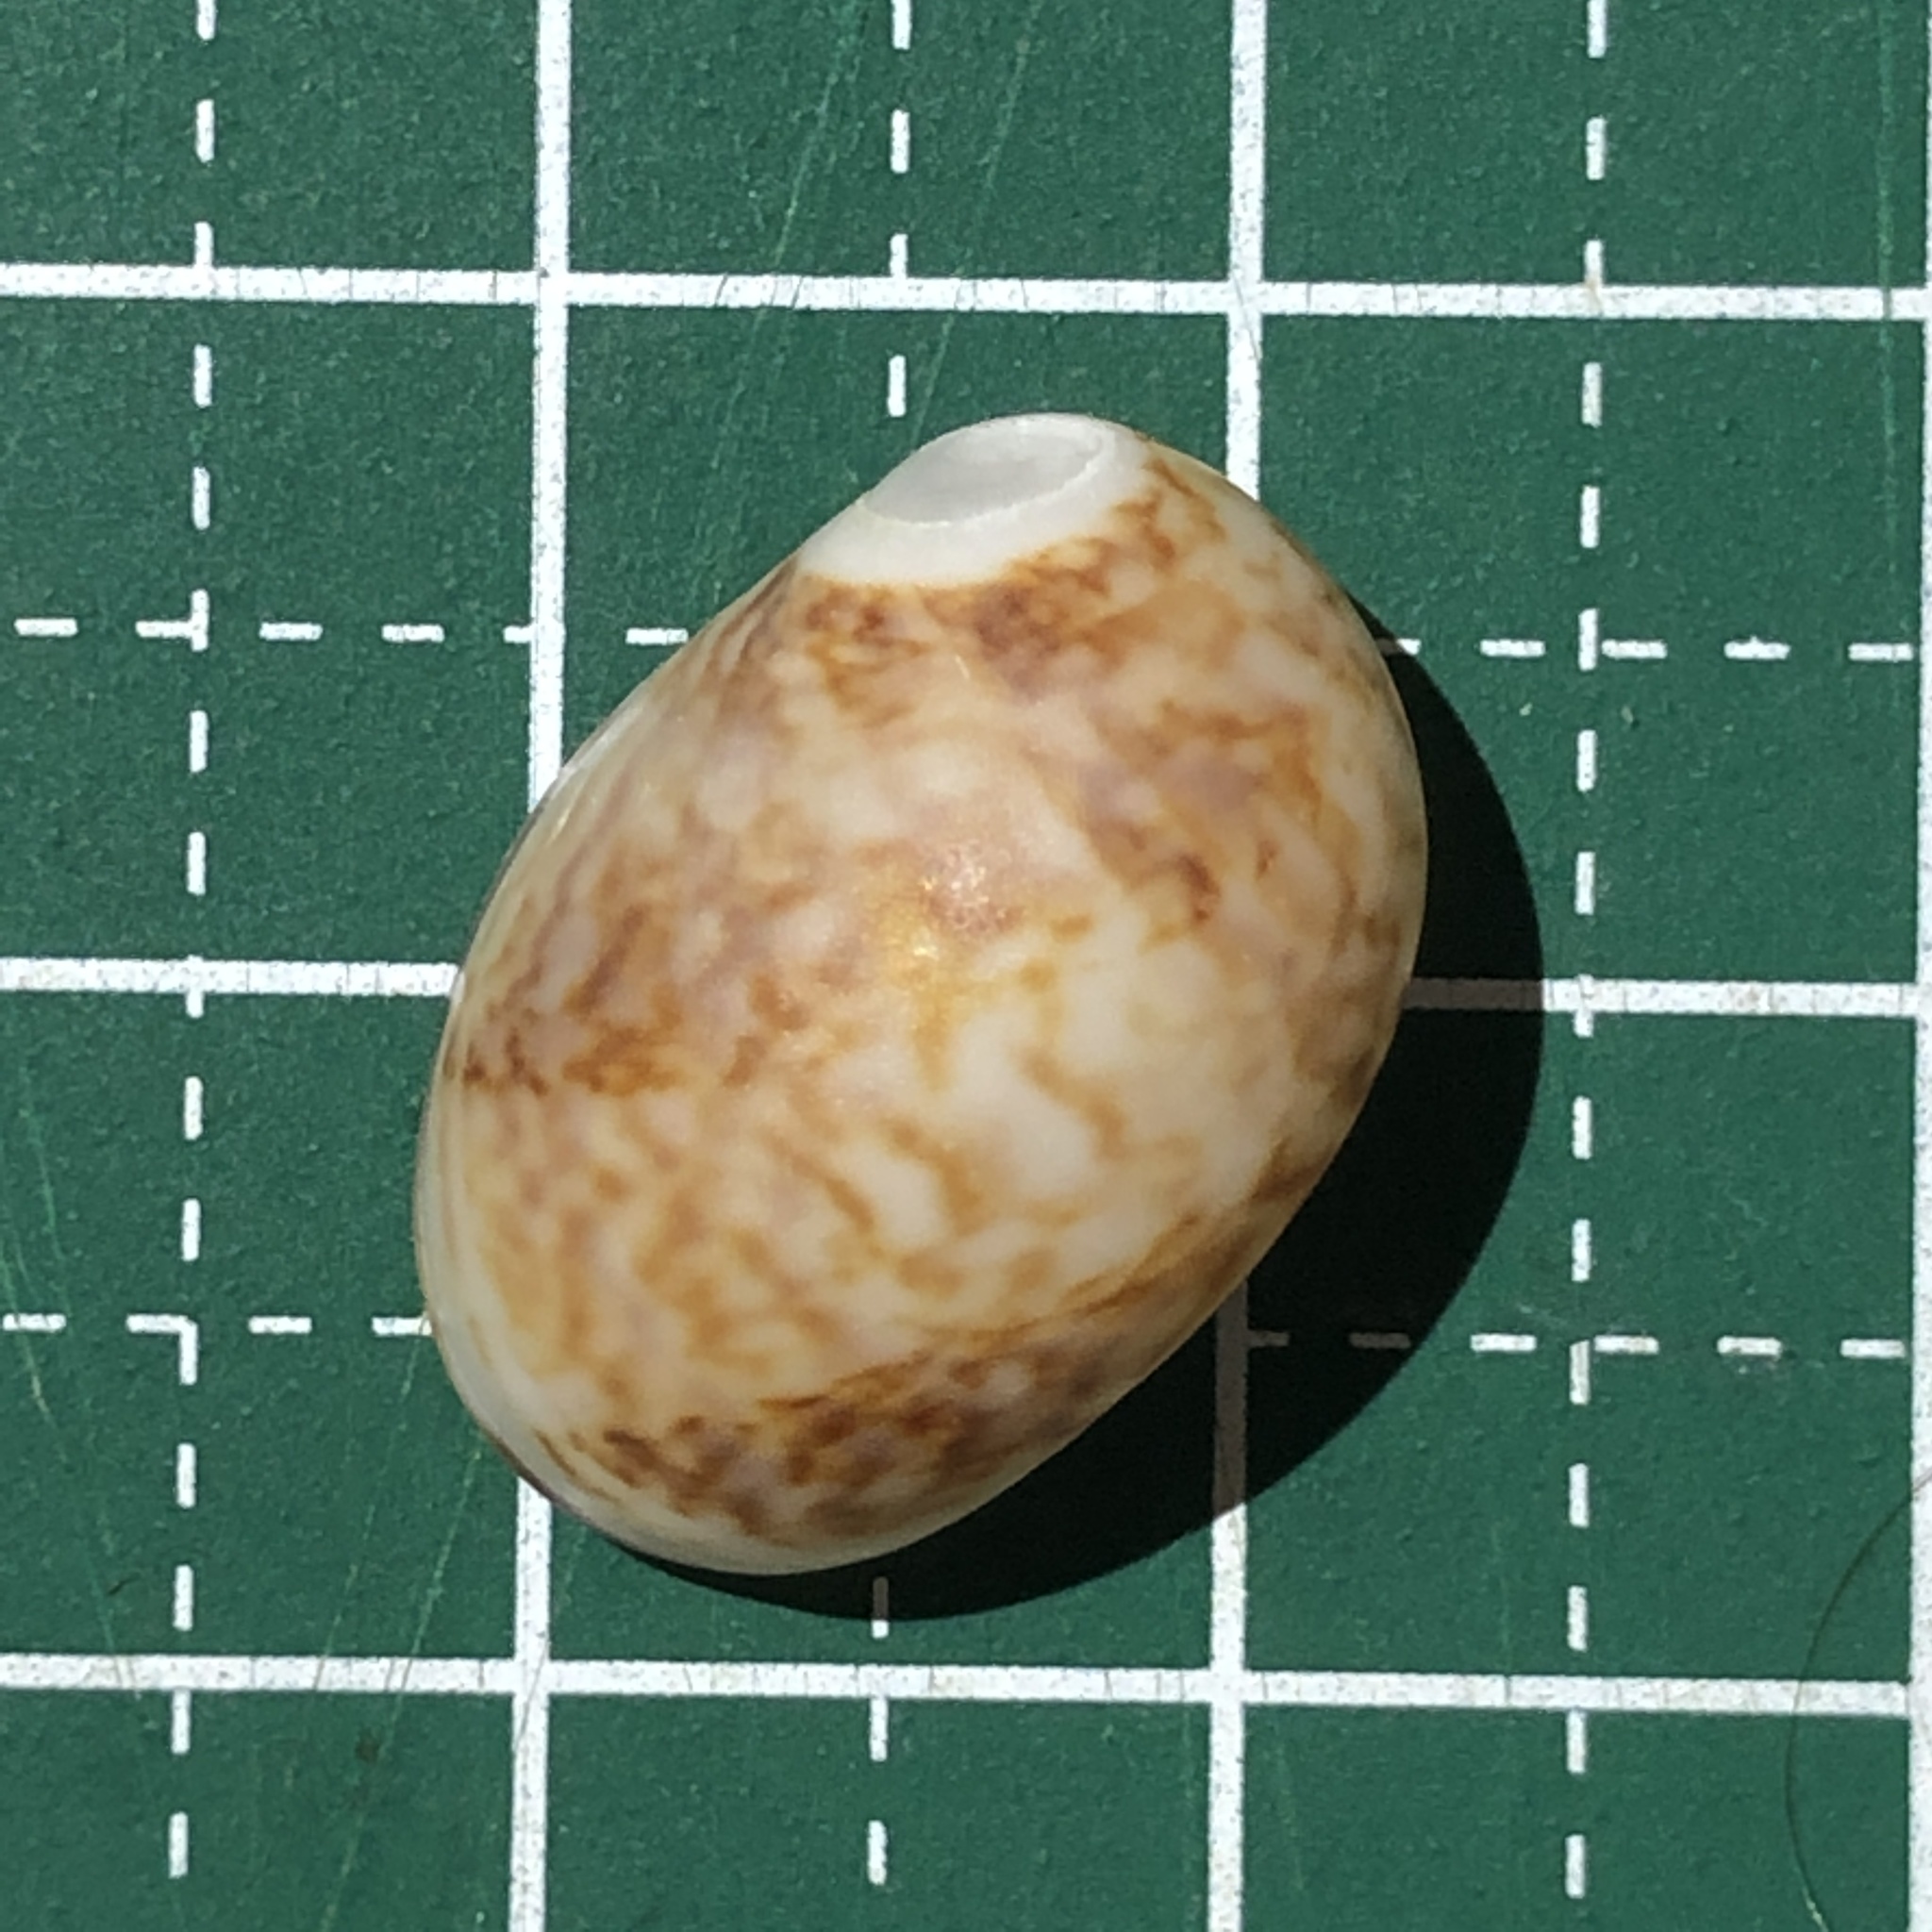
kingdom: Animalia
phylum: Mollusca
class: Gastropoda
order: Littorinimorpha
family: Naticidae
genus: Mammilla
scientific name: Mammilla simiae
